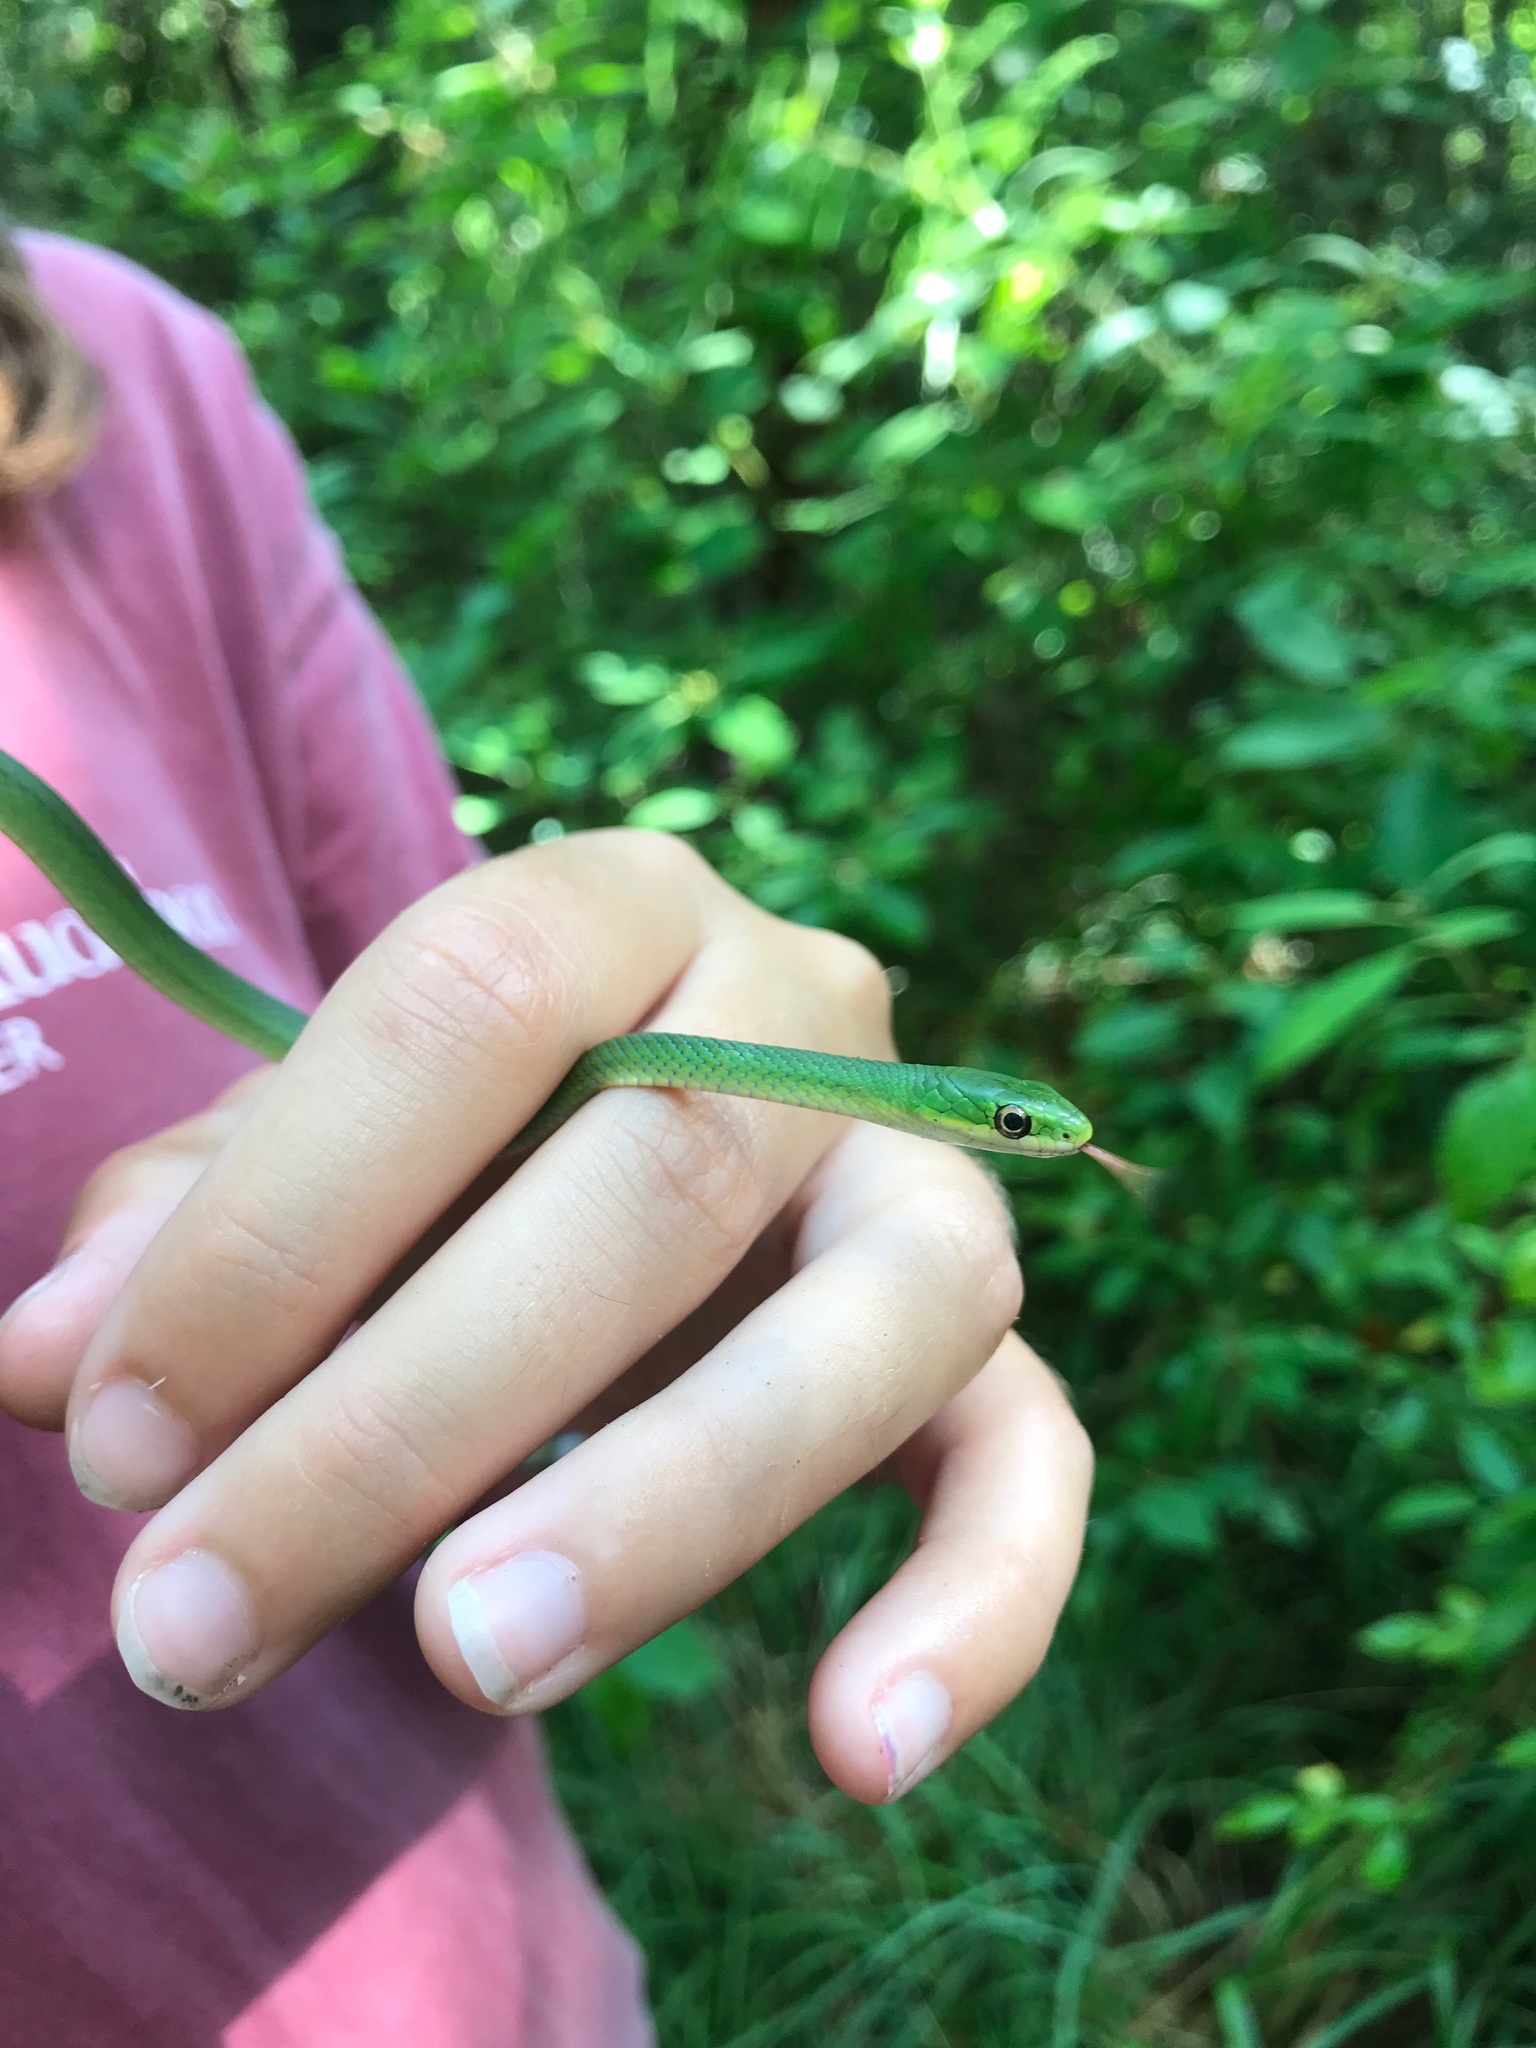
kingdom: Animalia
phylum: Chordata
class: Squamata
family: Colubridae
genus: Opheodrys
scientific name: Opheodrys aestivus
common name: Rough greensnake
